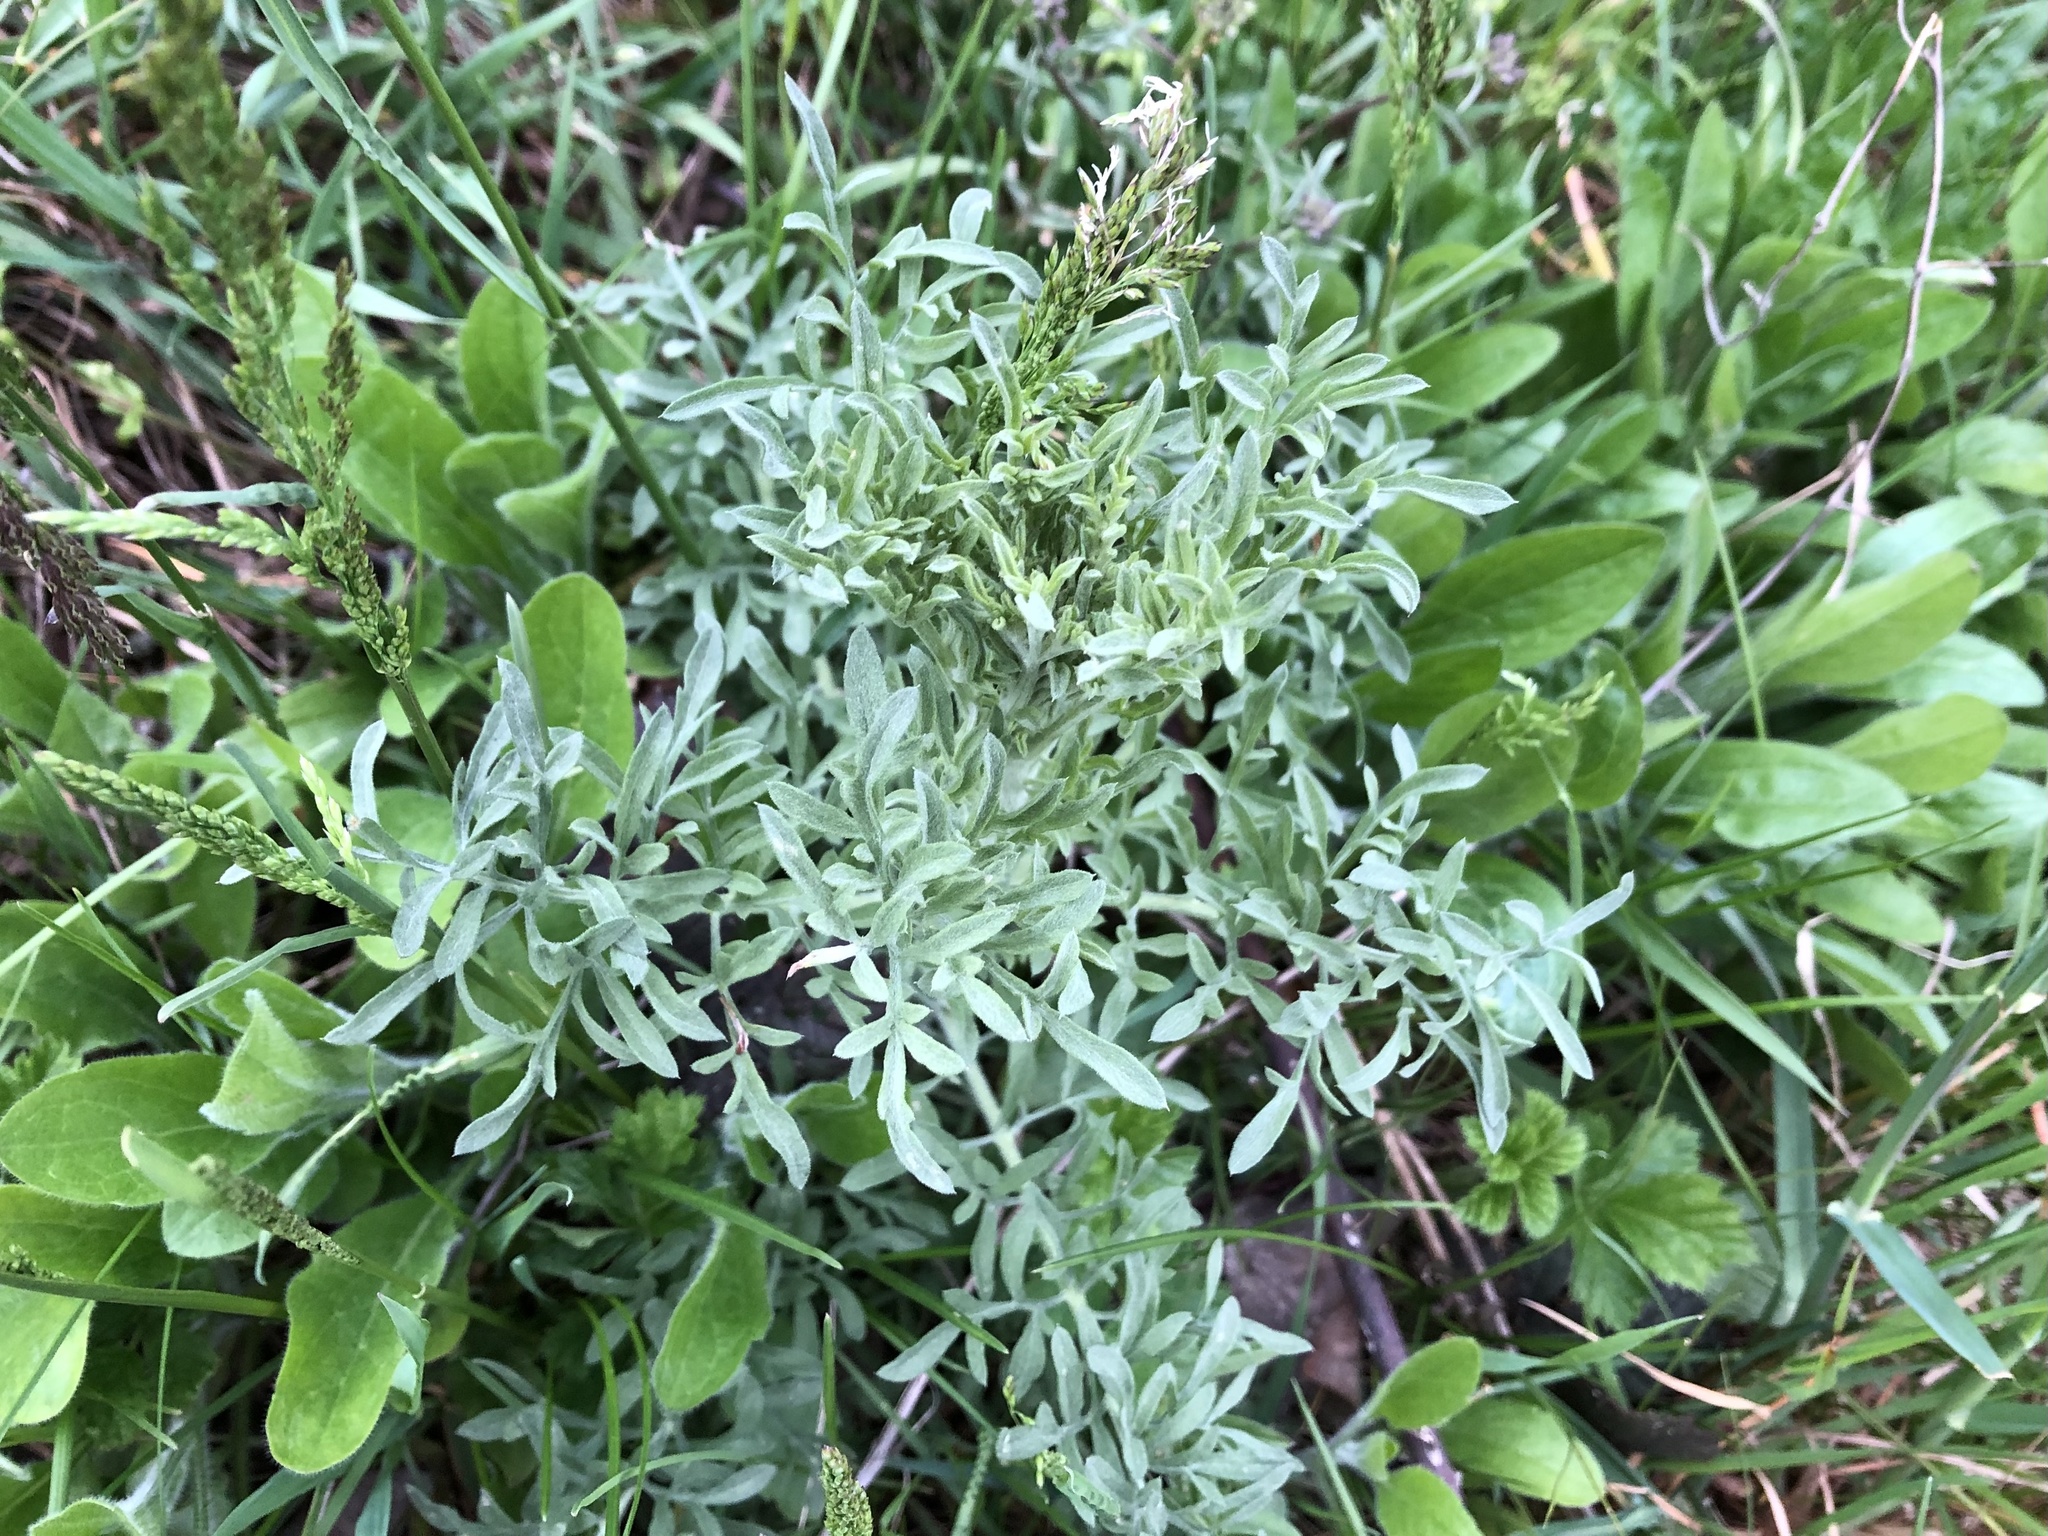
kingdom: Plantae
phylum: Tracheophyta
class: Magnoliopsida
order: Asterales
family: Asteraceae
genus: Centaurea
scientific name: Centaurea stoebe
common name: Spotted knapweed
